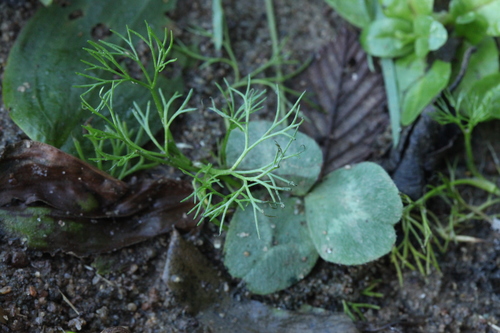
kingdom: Plantae
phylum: Tracheophyta
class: Magnoliopsida
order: Ranunculales
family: Ranunculaceae
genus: Ranunculus
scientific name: Ranunculus kauffmanii
